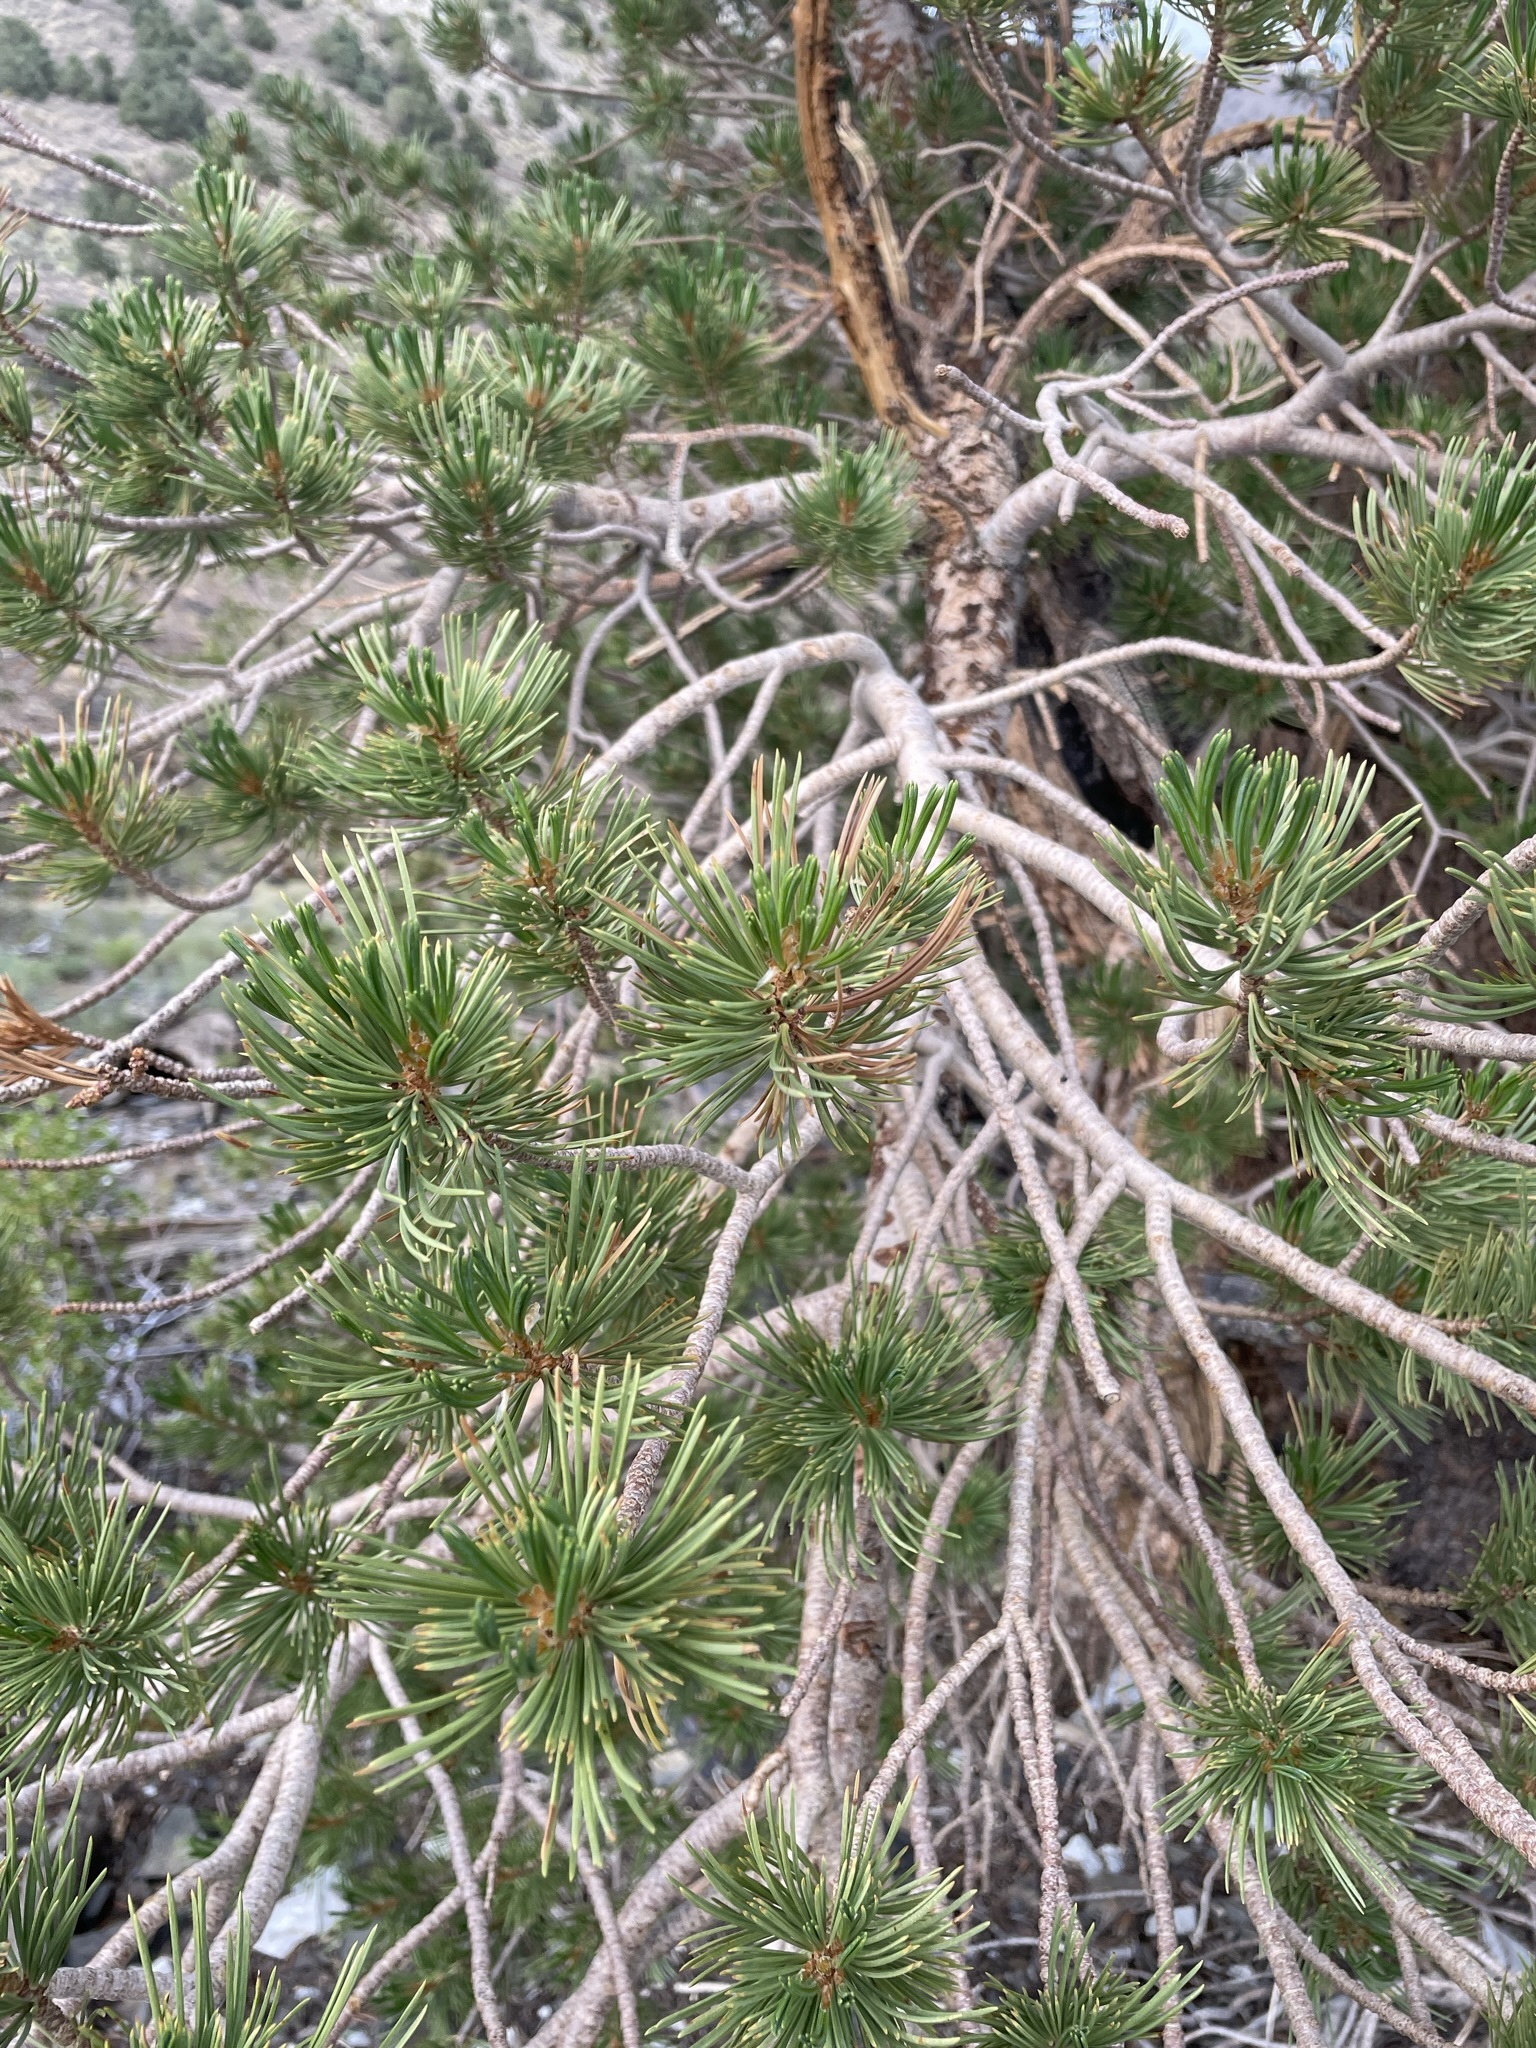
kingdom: Plantae
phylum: Tracheophyta
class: Pinopsida
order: Pinales
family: Pinaceae
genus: Pinus
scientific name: Pinus flexilis
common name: Limber pine
